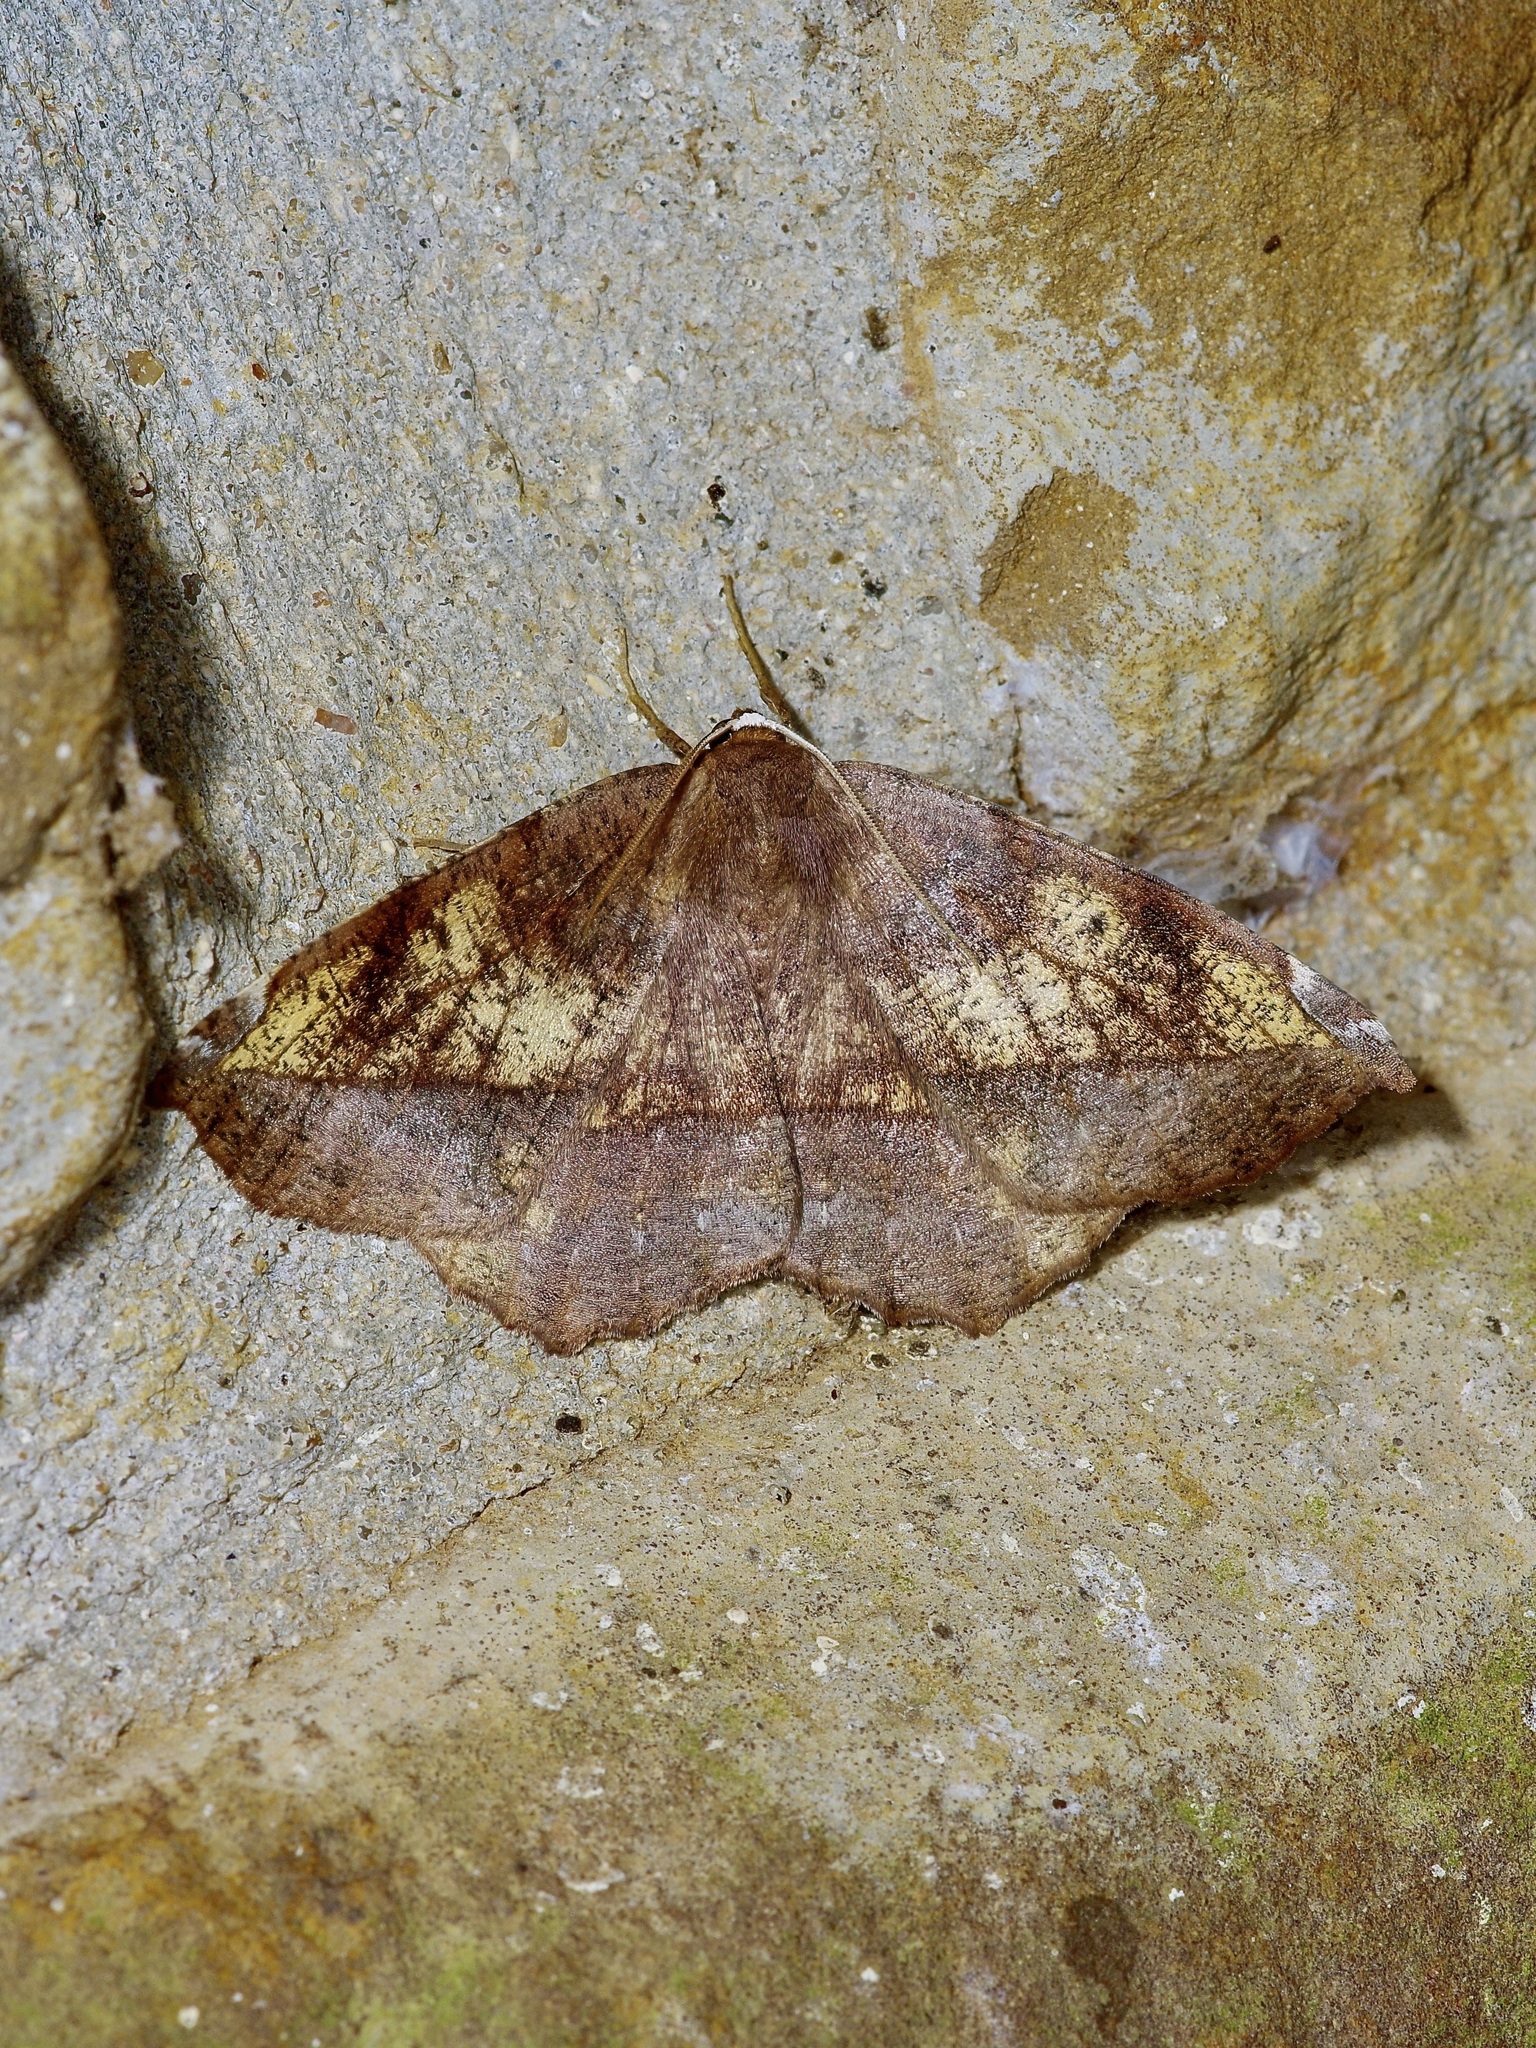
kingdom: Animalia
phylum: Arthropoda
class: Insecta
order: Lepidoptera
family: Geometridae
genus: Eutrapela
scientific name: Eutrapela clemataria
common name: Curved-toothed geometer
